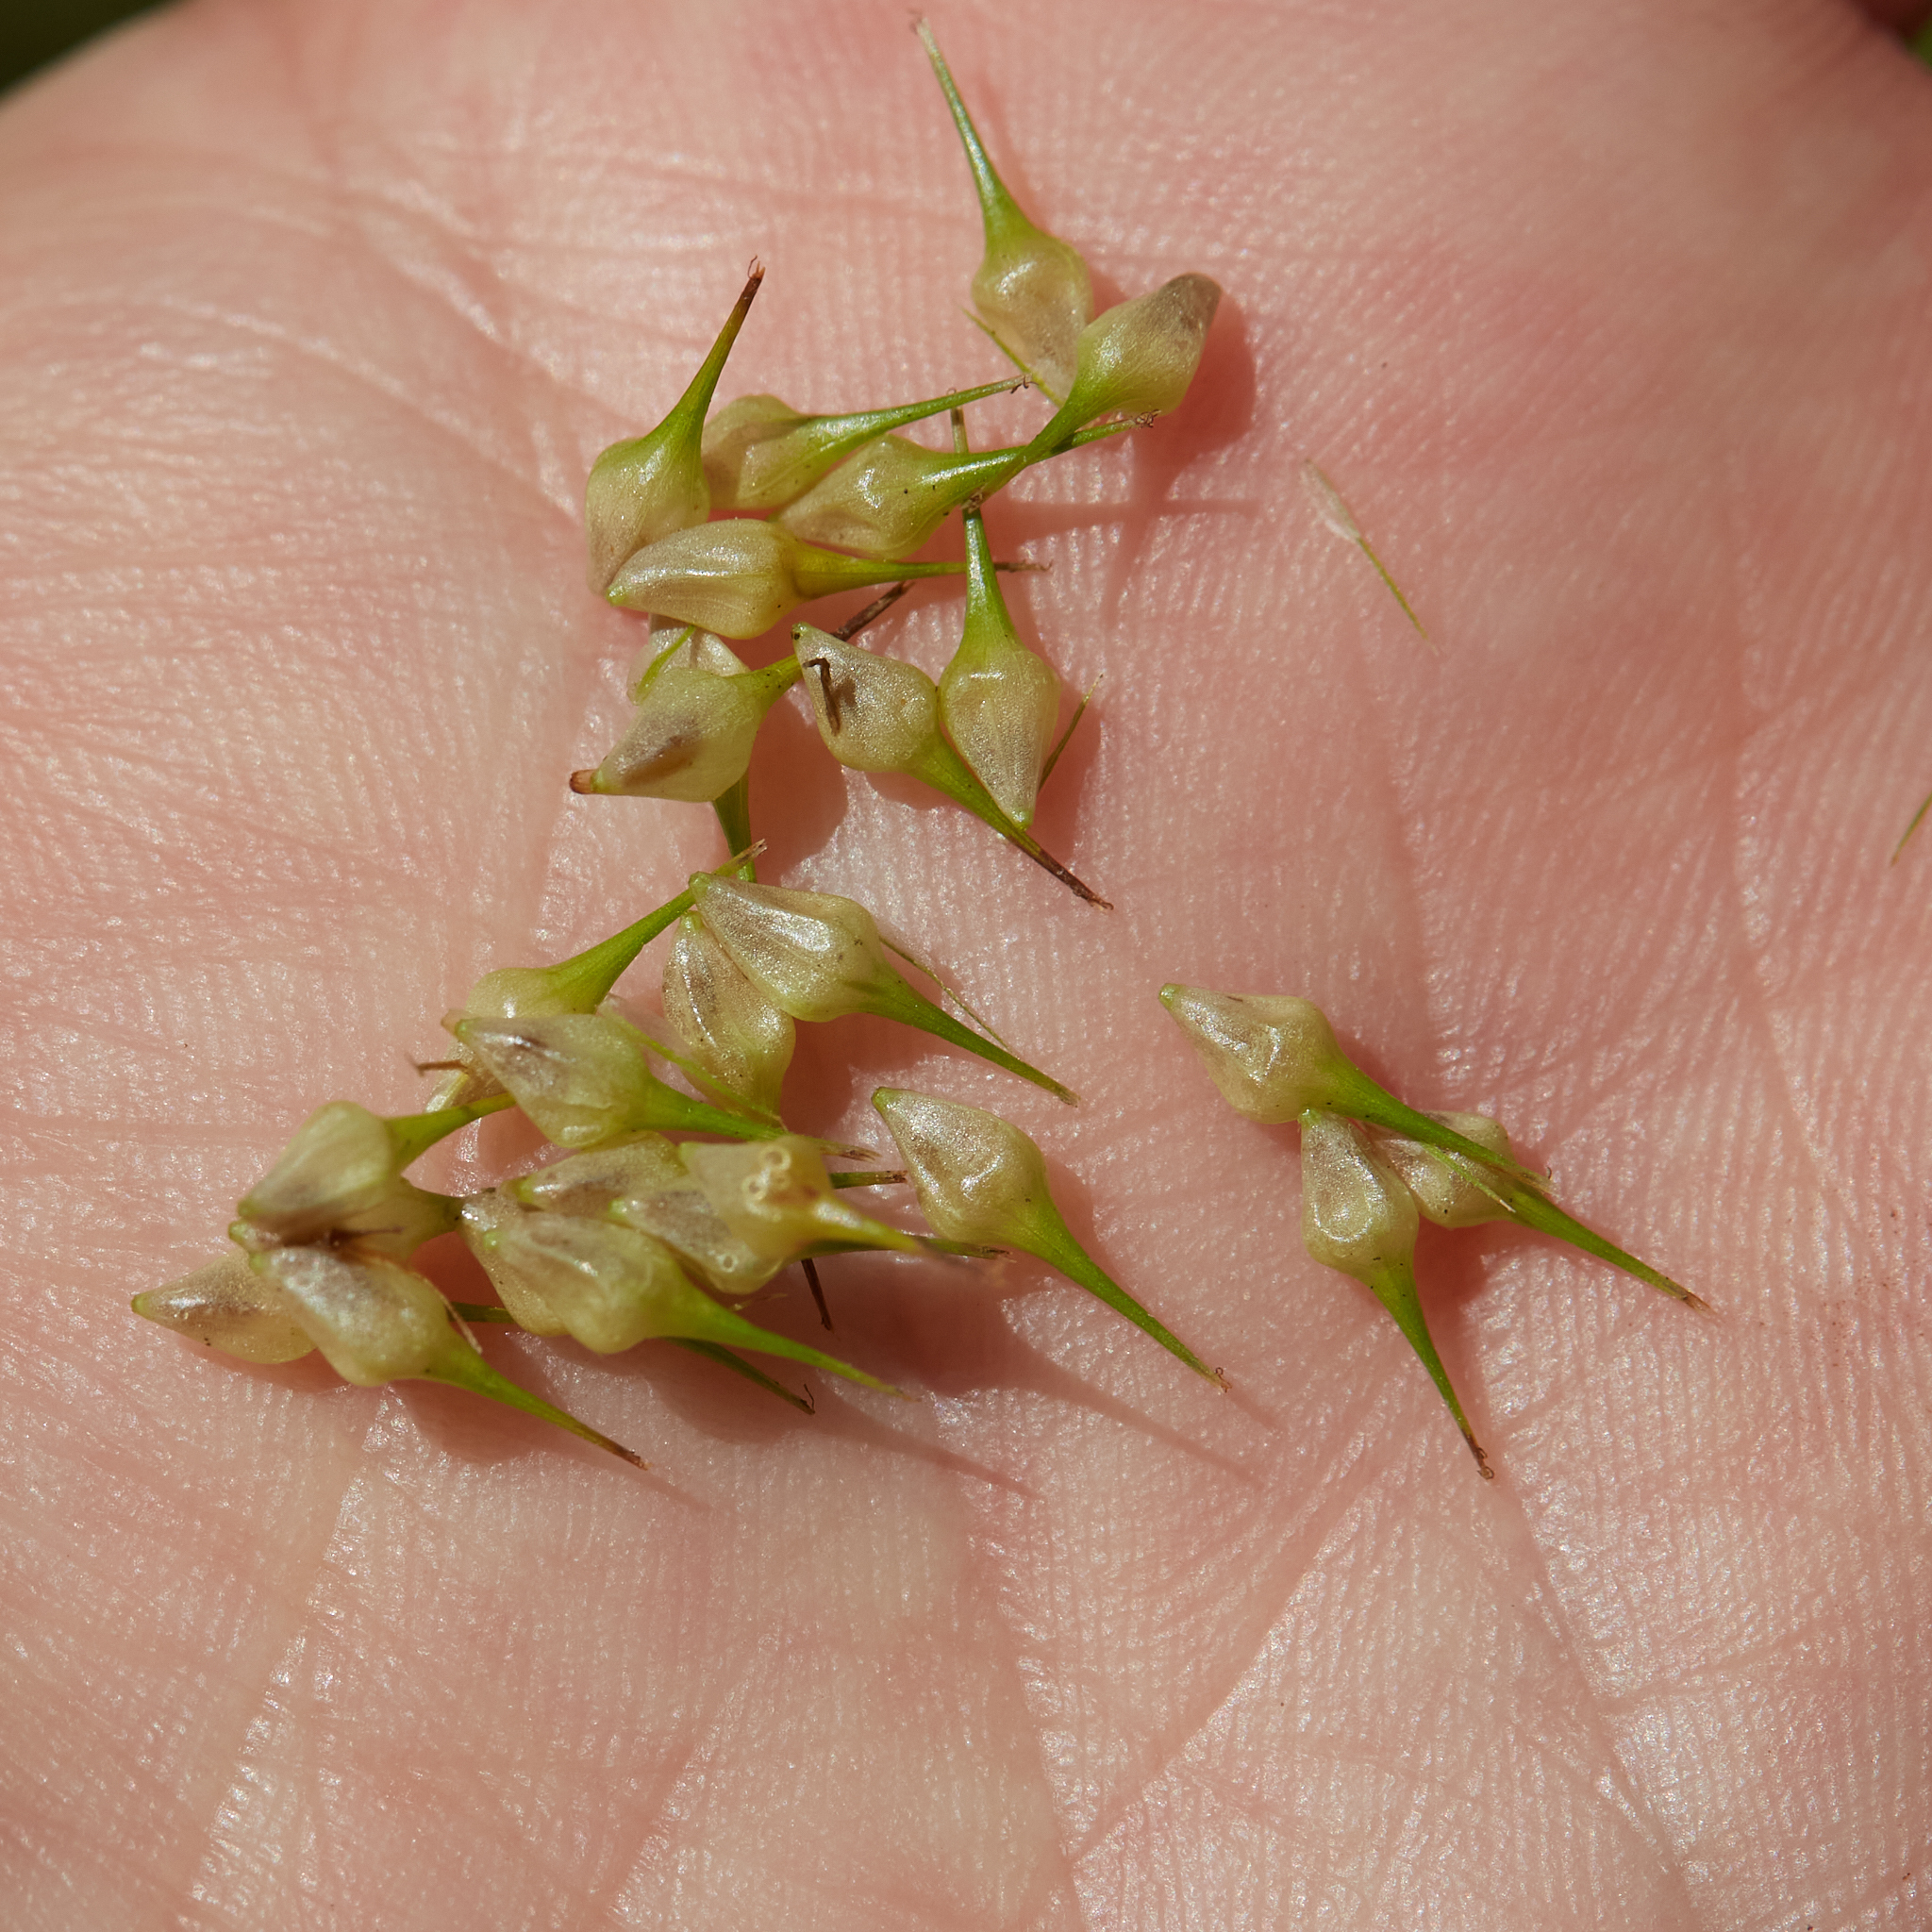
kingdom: Plantae
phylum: Tracheophyta
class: Liliopsida
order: Poales
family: Cyperaceae
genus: Carex
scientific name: Carex lurida
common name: Sallow sedge
